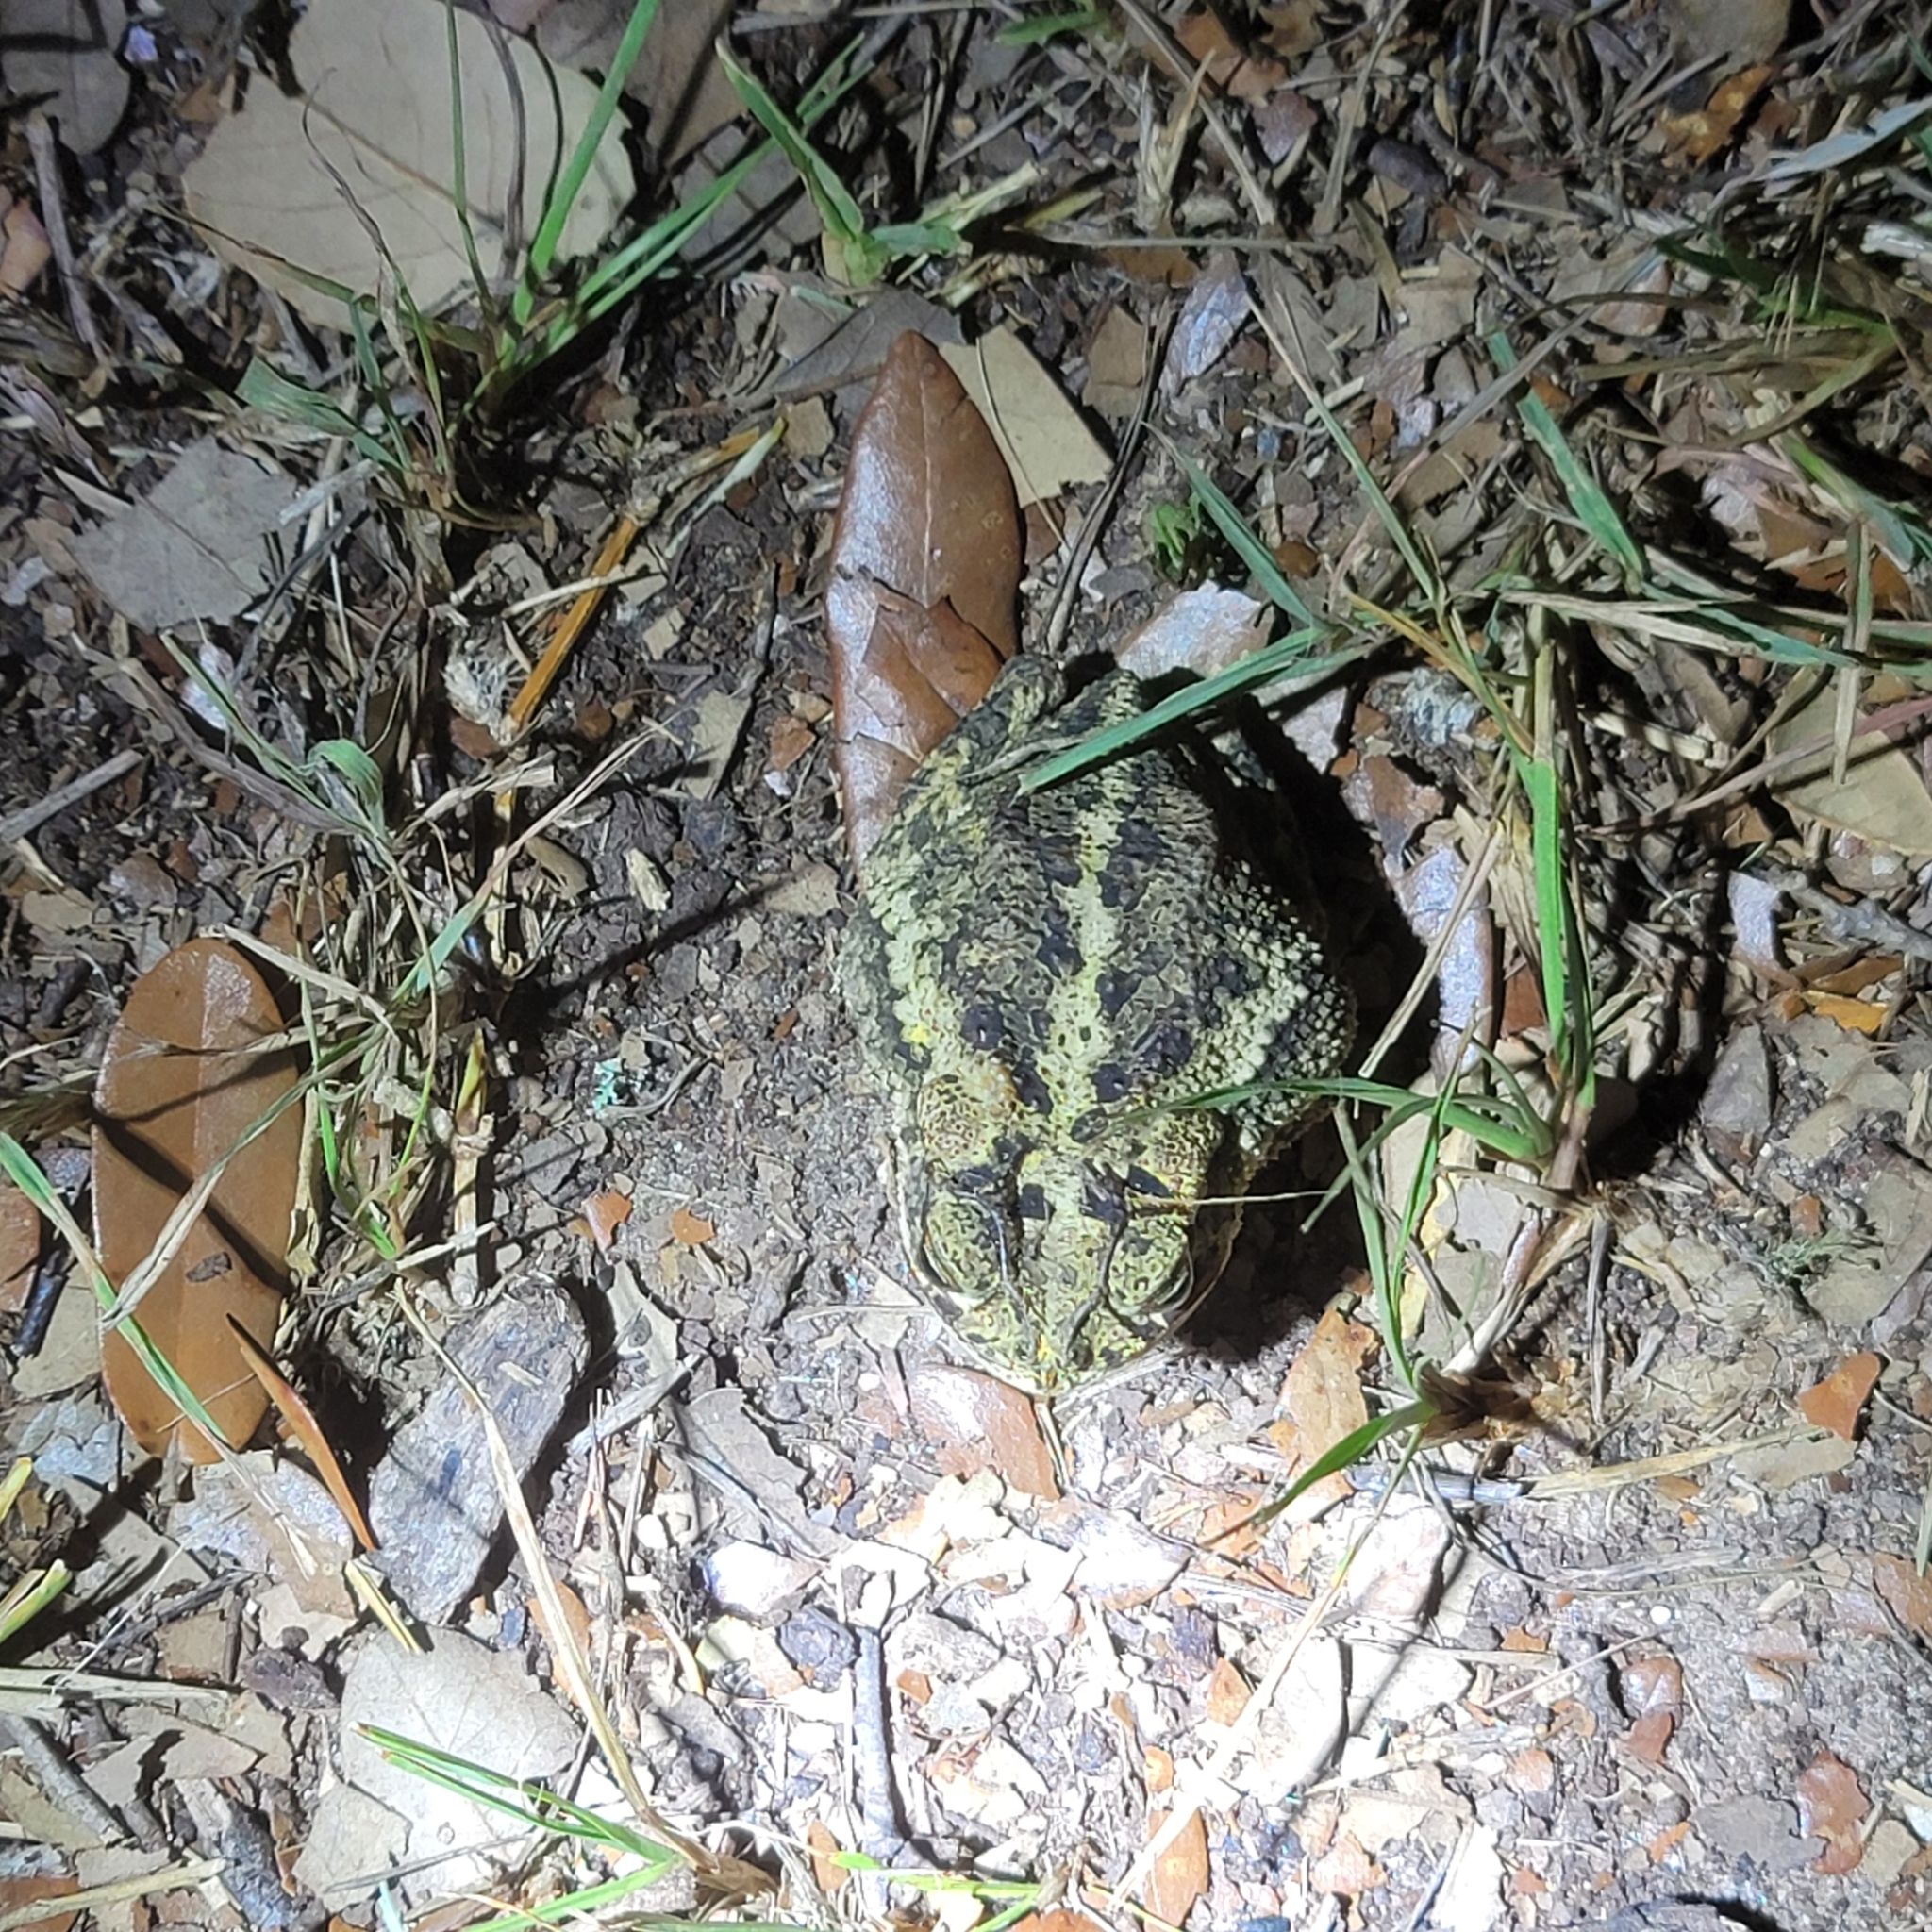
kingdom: Animalia
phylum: Chordata
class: Amphibia
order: Anura
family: Bufonidae
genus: Incilius
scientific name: Incilius nebulifer
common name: Gulf coast toad
